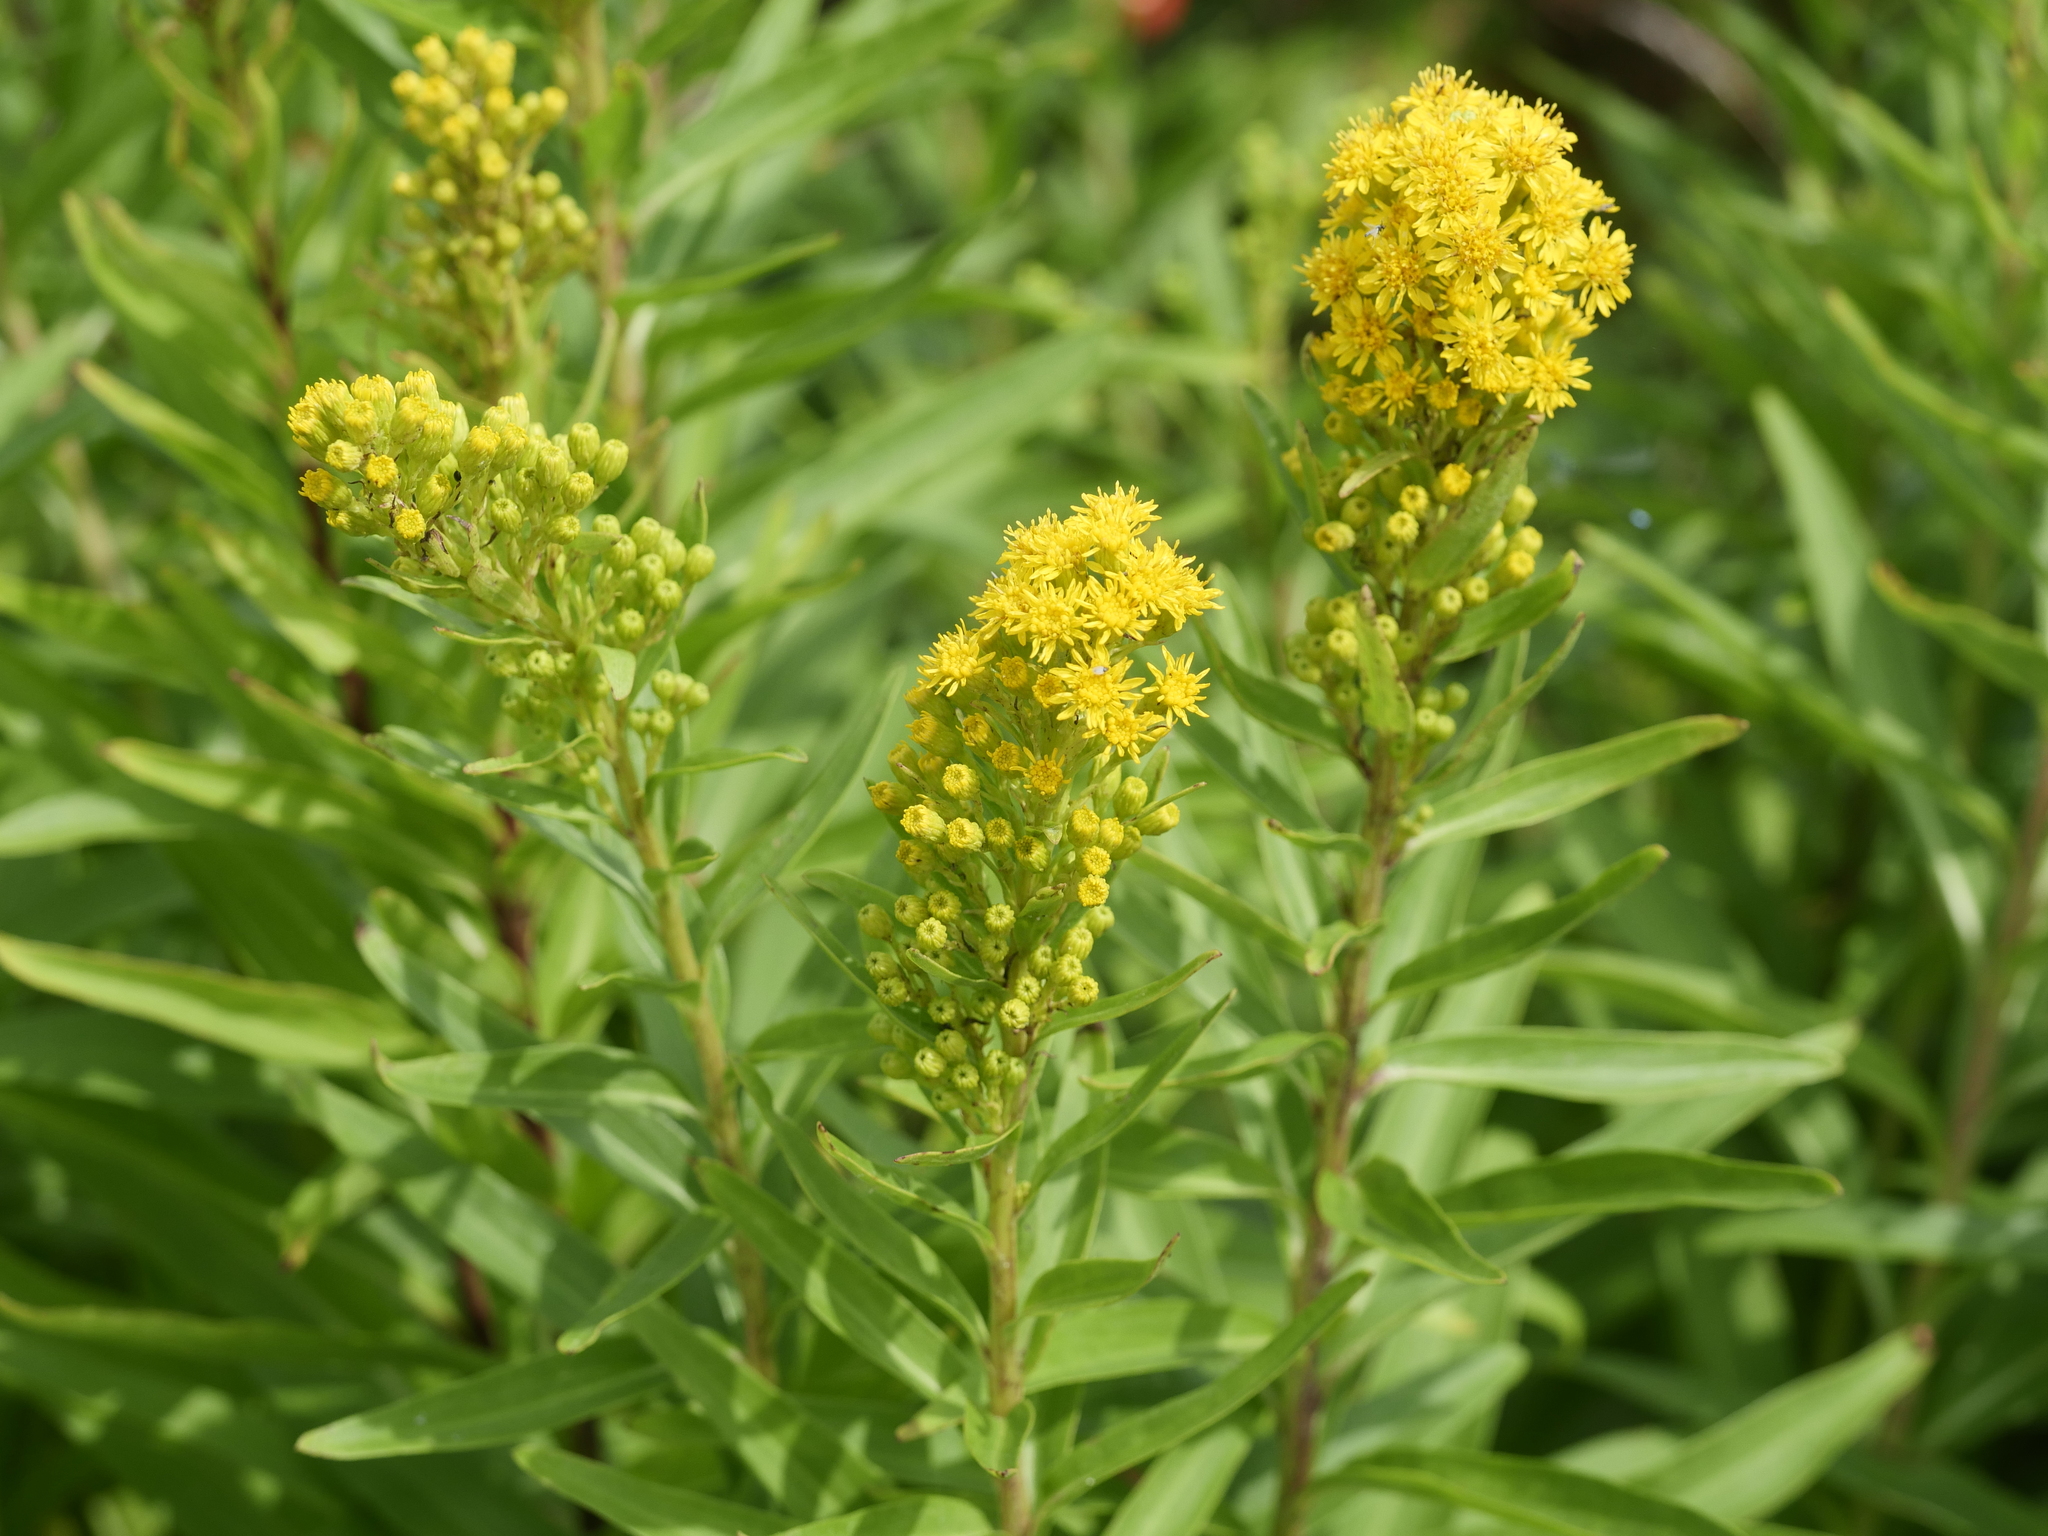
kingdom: Plantae
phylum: Tracheophyta
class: Magnoliopsida
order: Asterales
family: Asteraceae
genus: Solidago
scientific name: Solidago sempervirens
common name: Salt-marsh goldenrod
